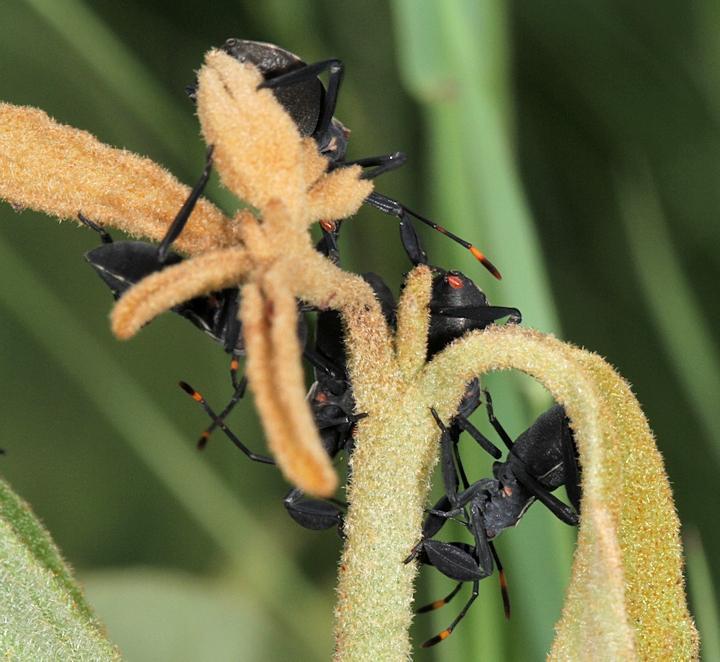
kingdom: Plantae
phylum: Tracheophyta
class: Magnoliopsida
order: Solanales
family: Solanaceae
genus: Solanum
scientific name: Solanum campylacanthum
